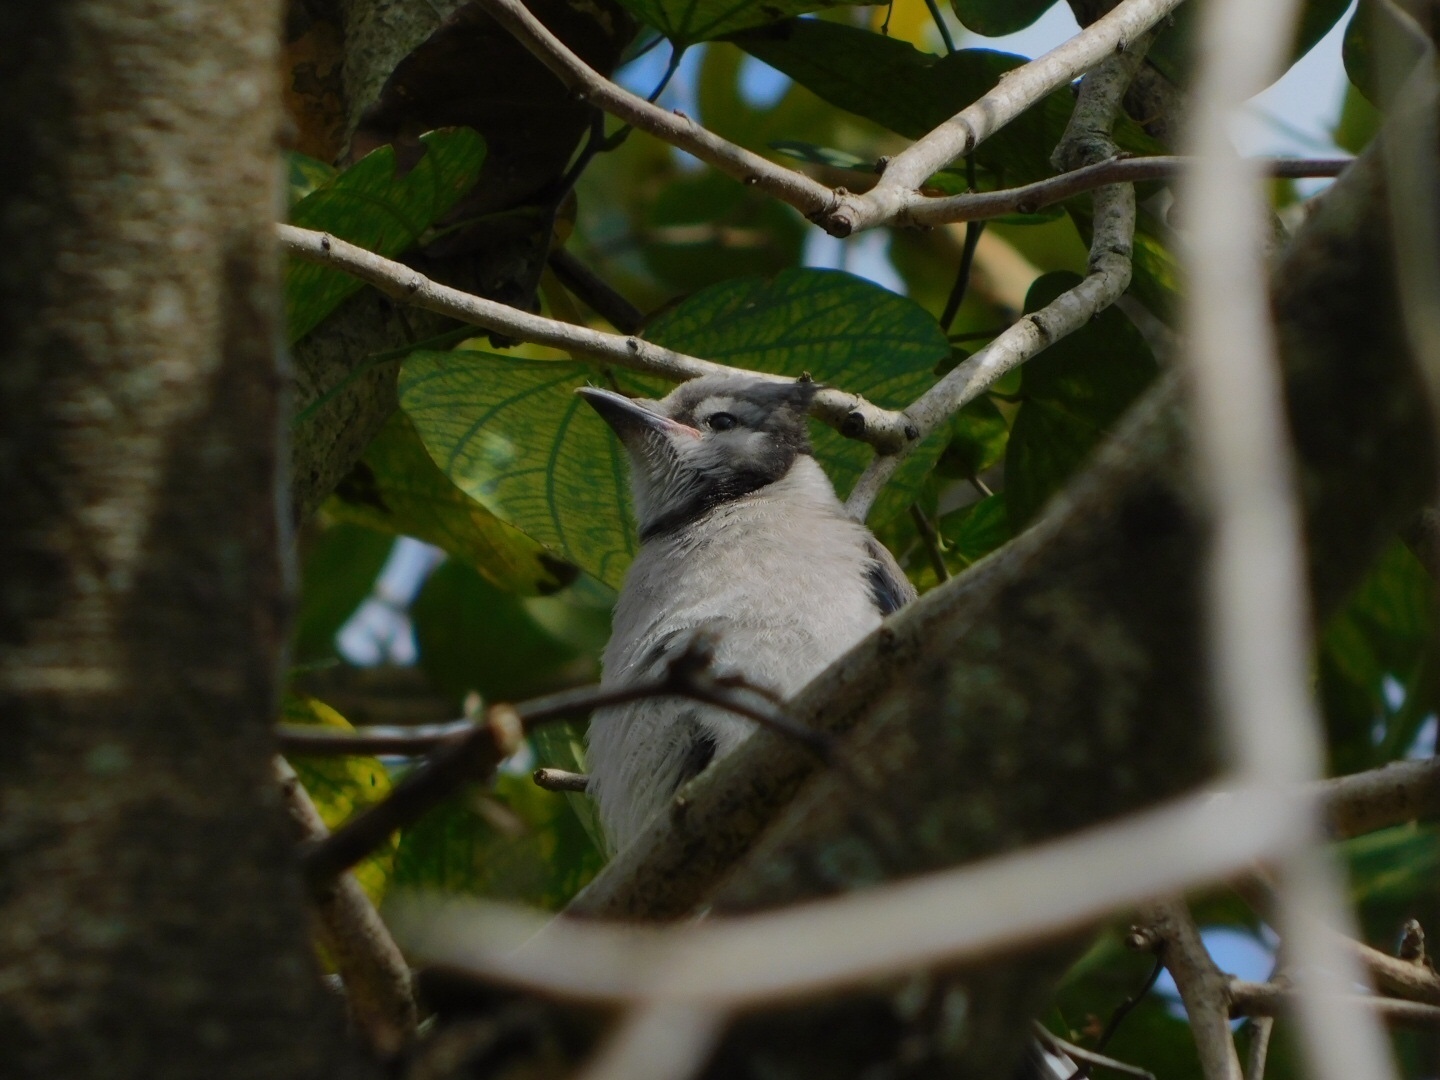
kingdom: Animalia
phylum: Chordata
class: Aves
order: Passeriformes
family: Corvidae
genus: Cyanocitta
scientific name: Cyanocitta cristata
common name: Blue jay
